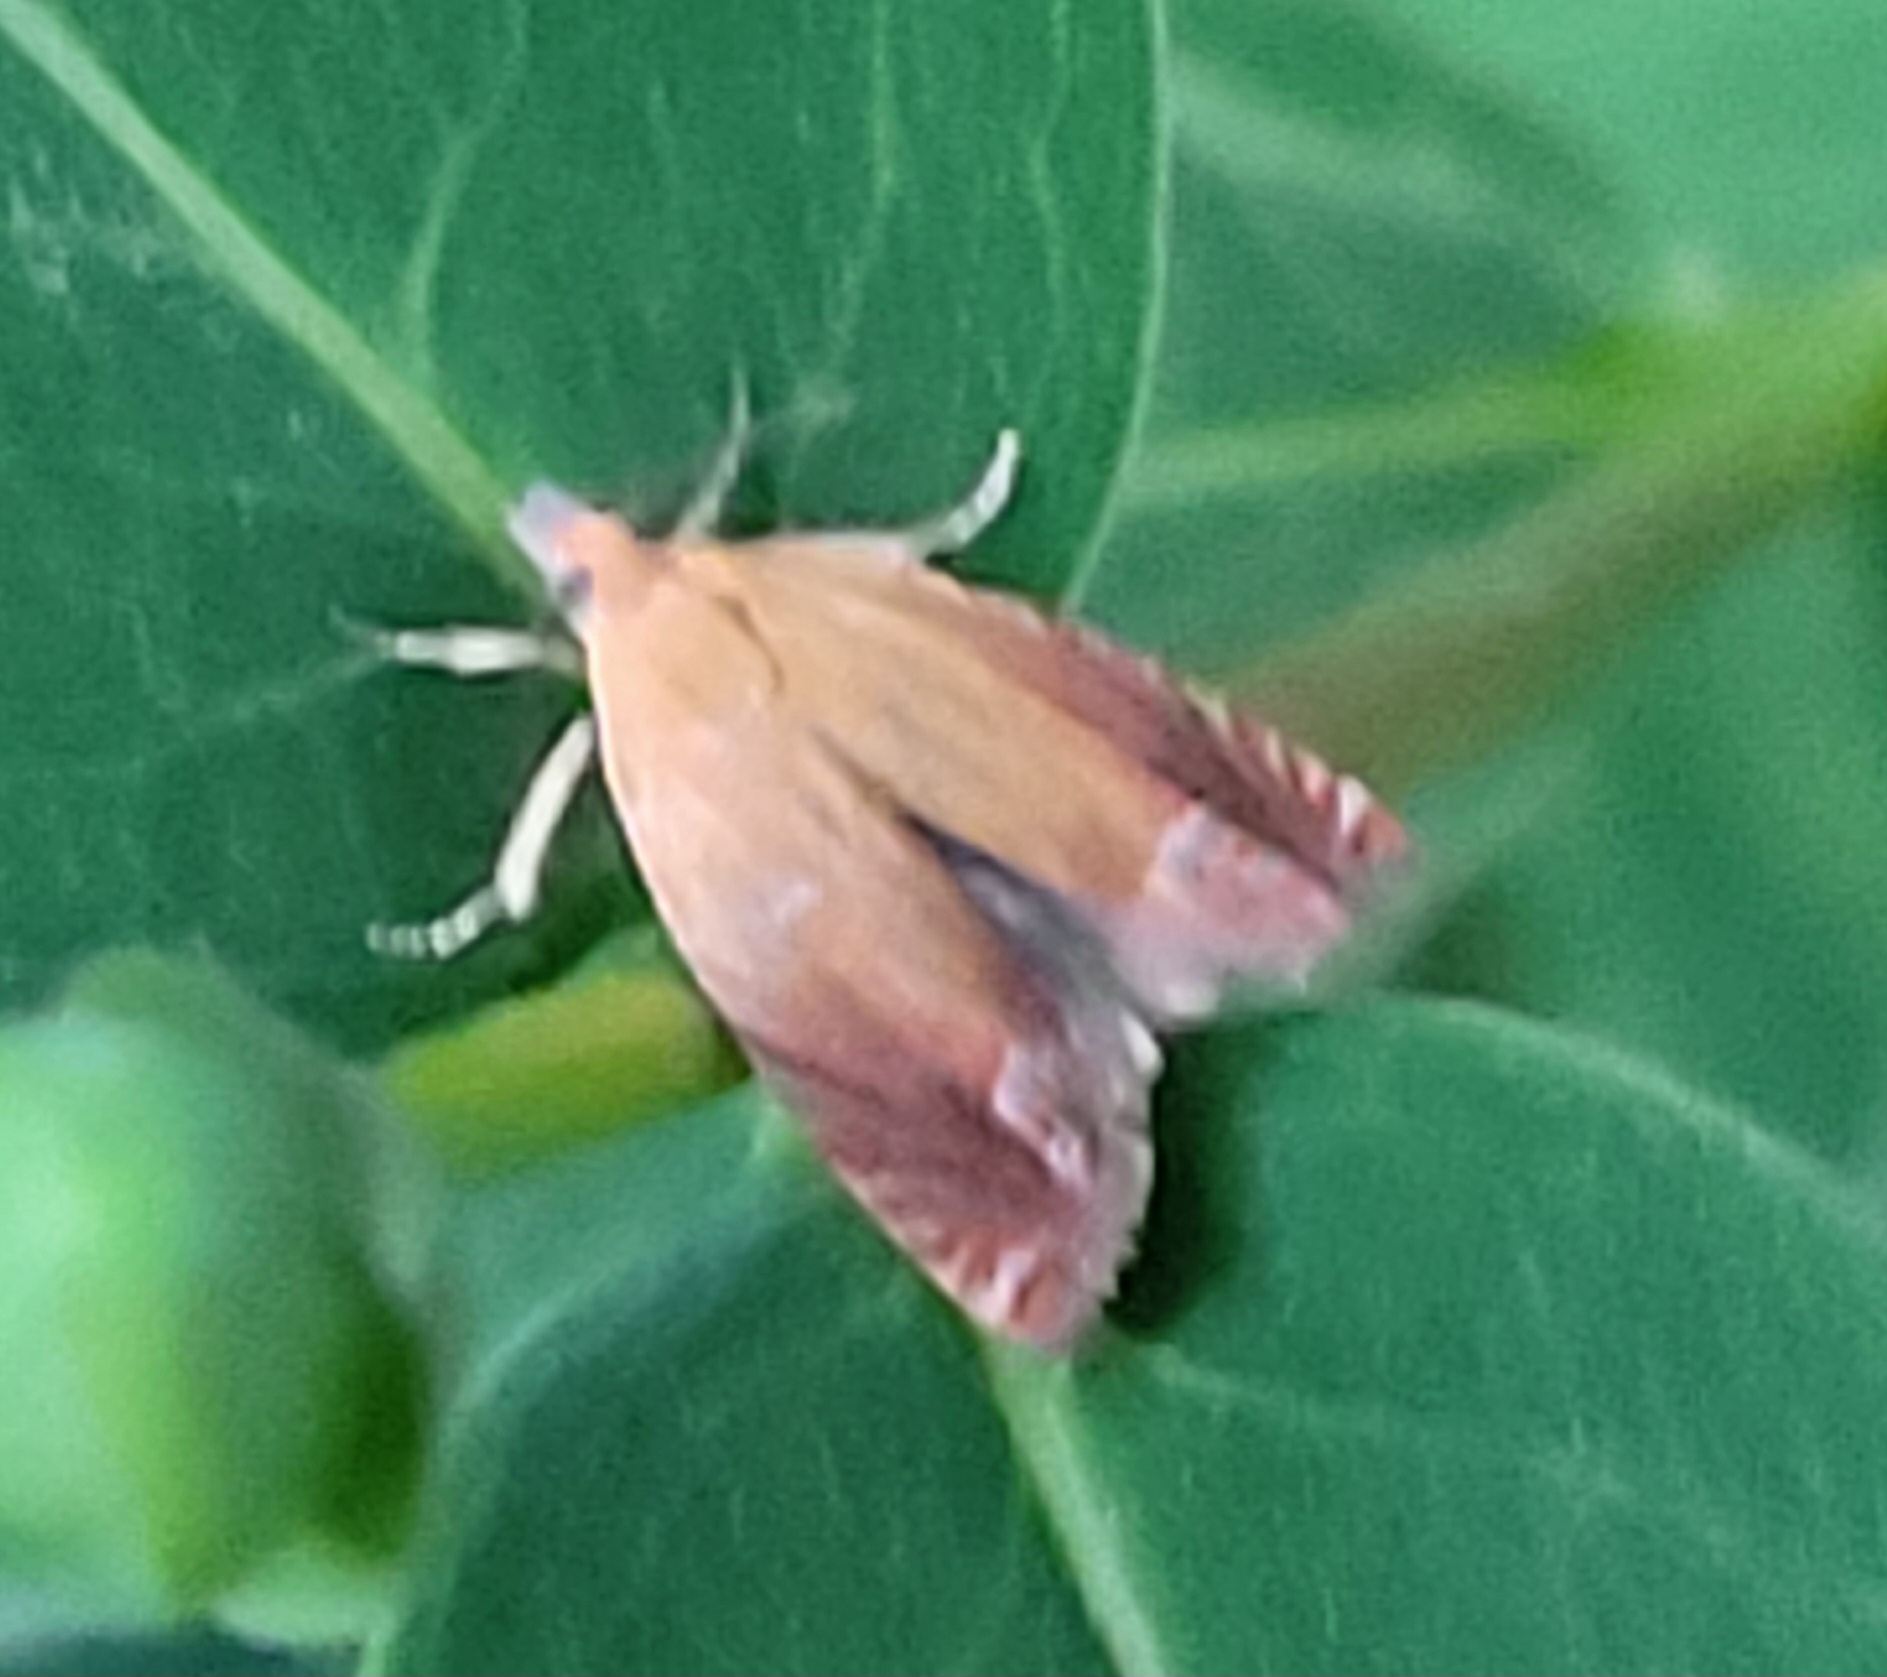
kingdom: Animalia
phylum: Arthropoda
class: Insecta
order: Lepidoptera
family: Tortricidae
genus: Lathronympha
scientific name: Lathronympha strigana
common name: Red piercer
